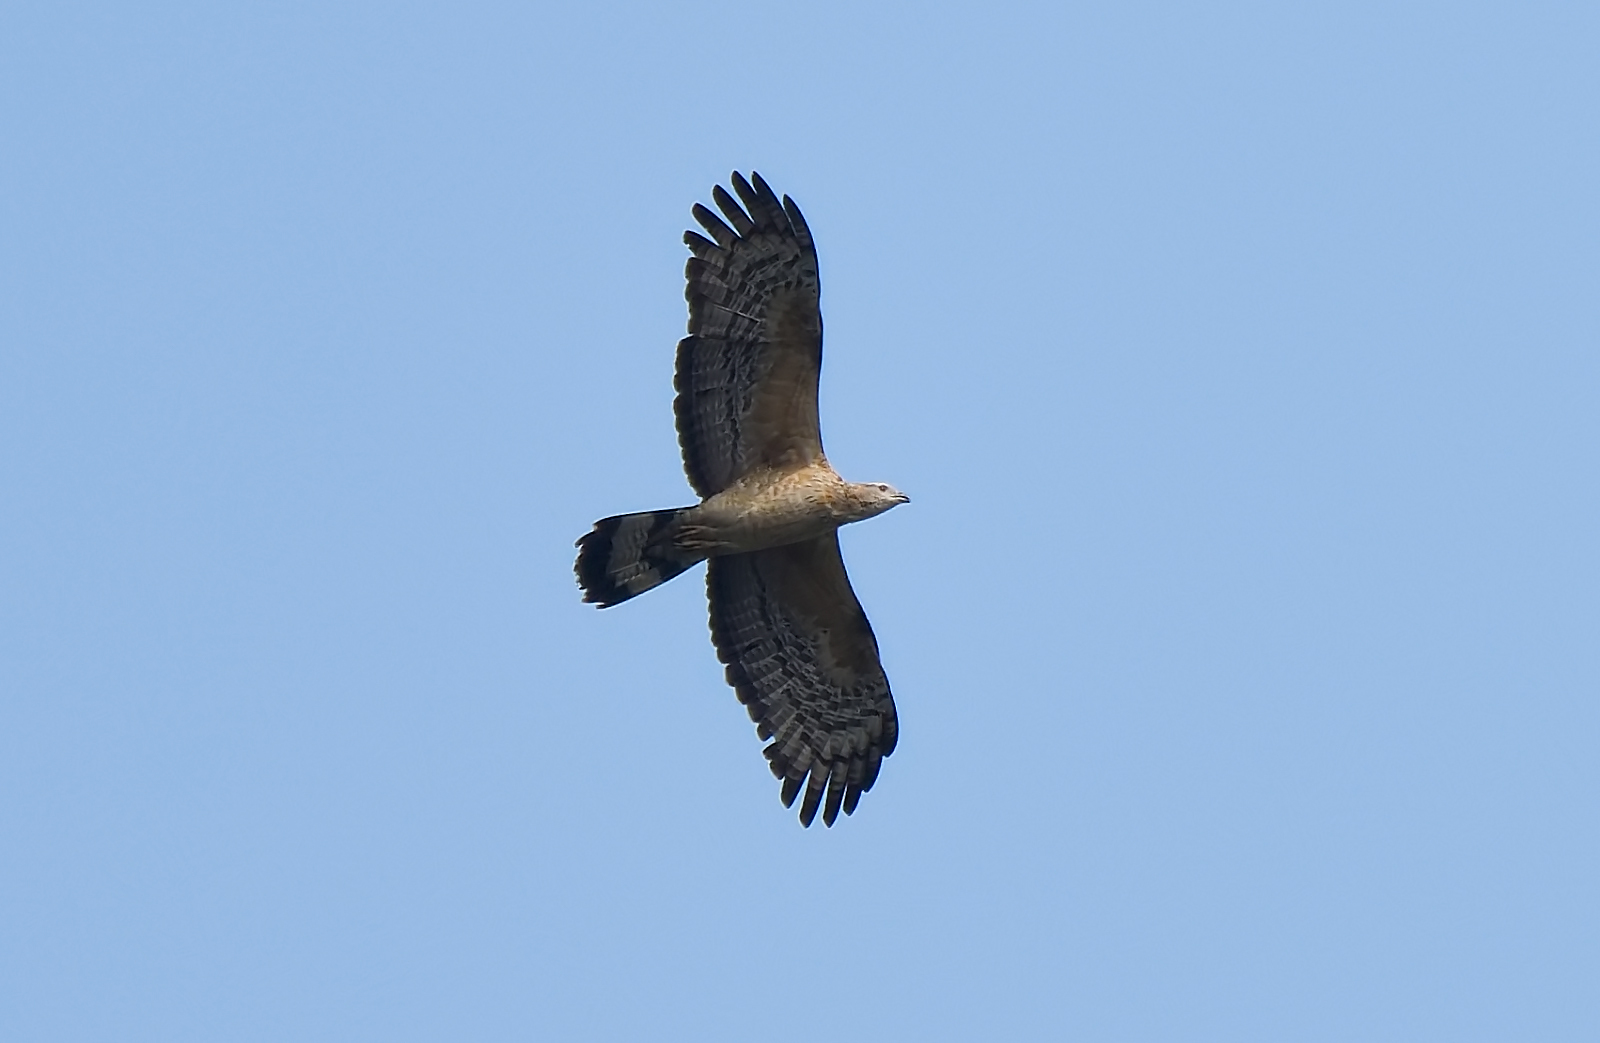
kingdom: Animalia
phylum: Chordata
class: Aves
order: Accipitriformes
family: Accipitridae
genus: Pernis
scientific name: Pernis ptilorhynchus
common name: Crested honey buzzard
